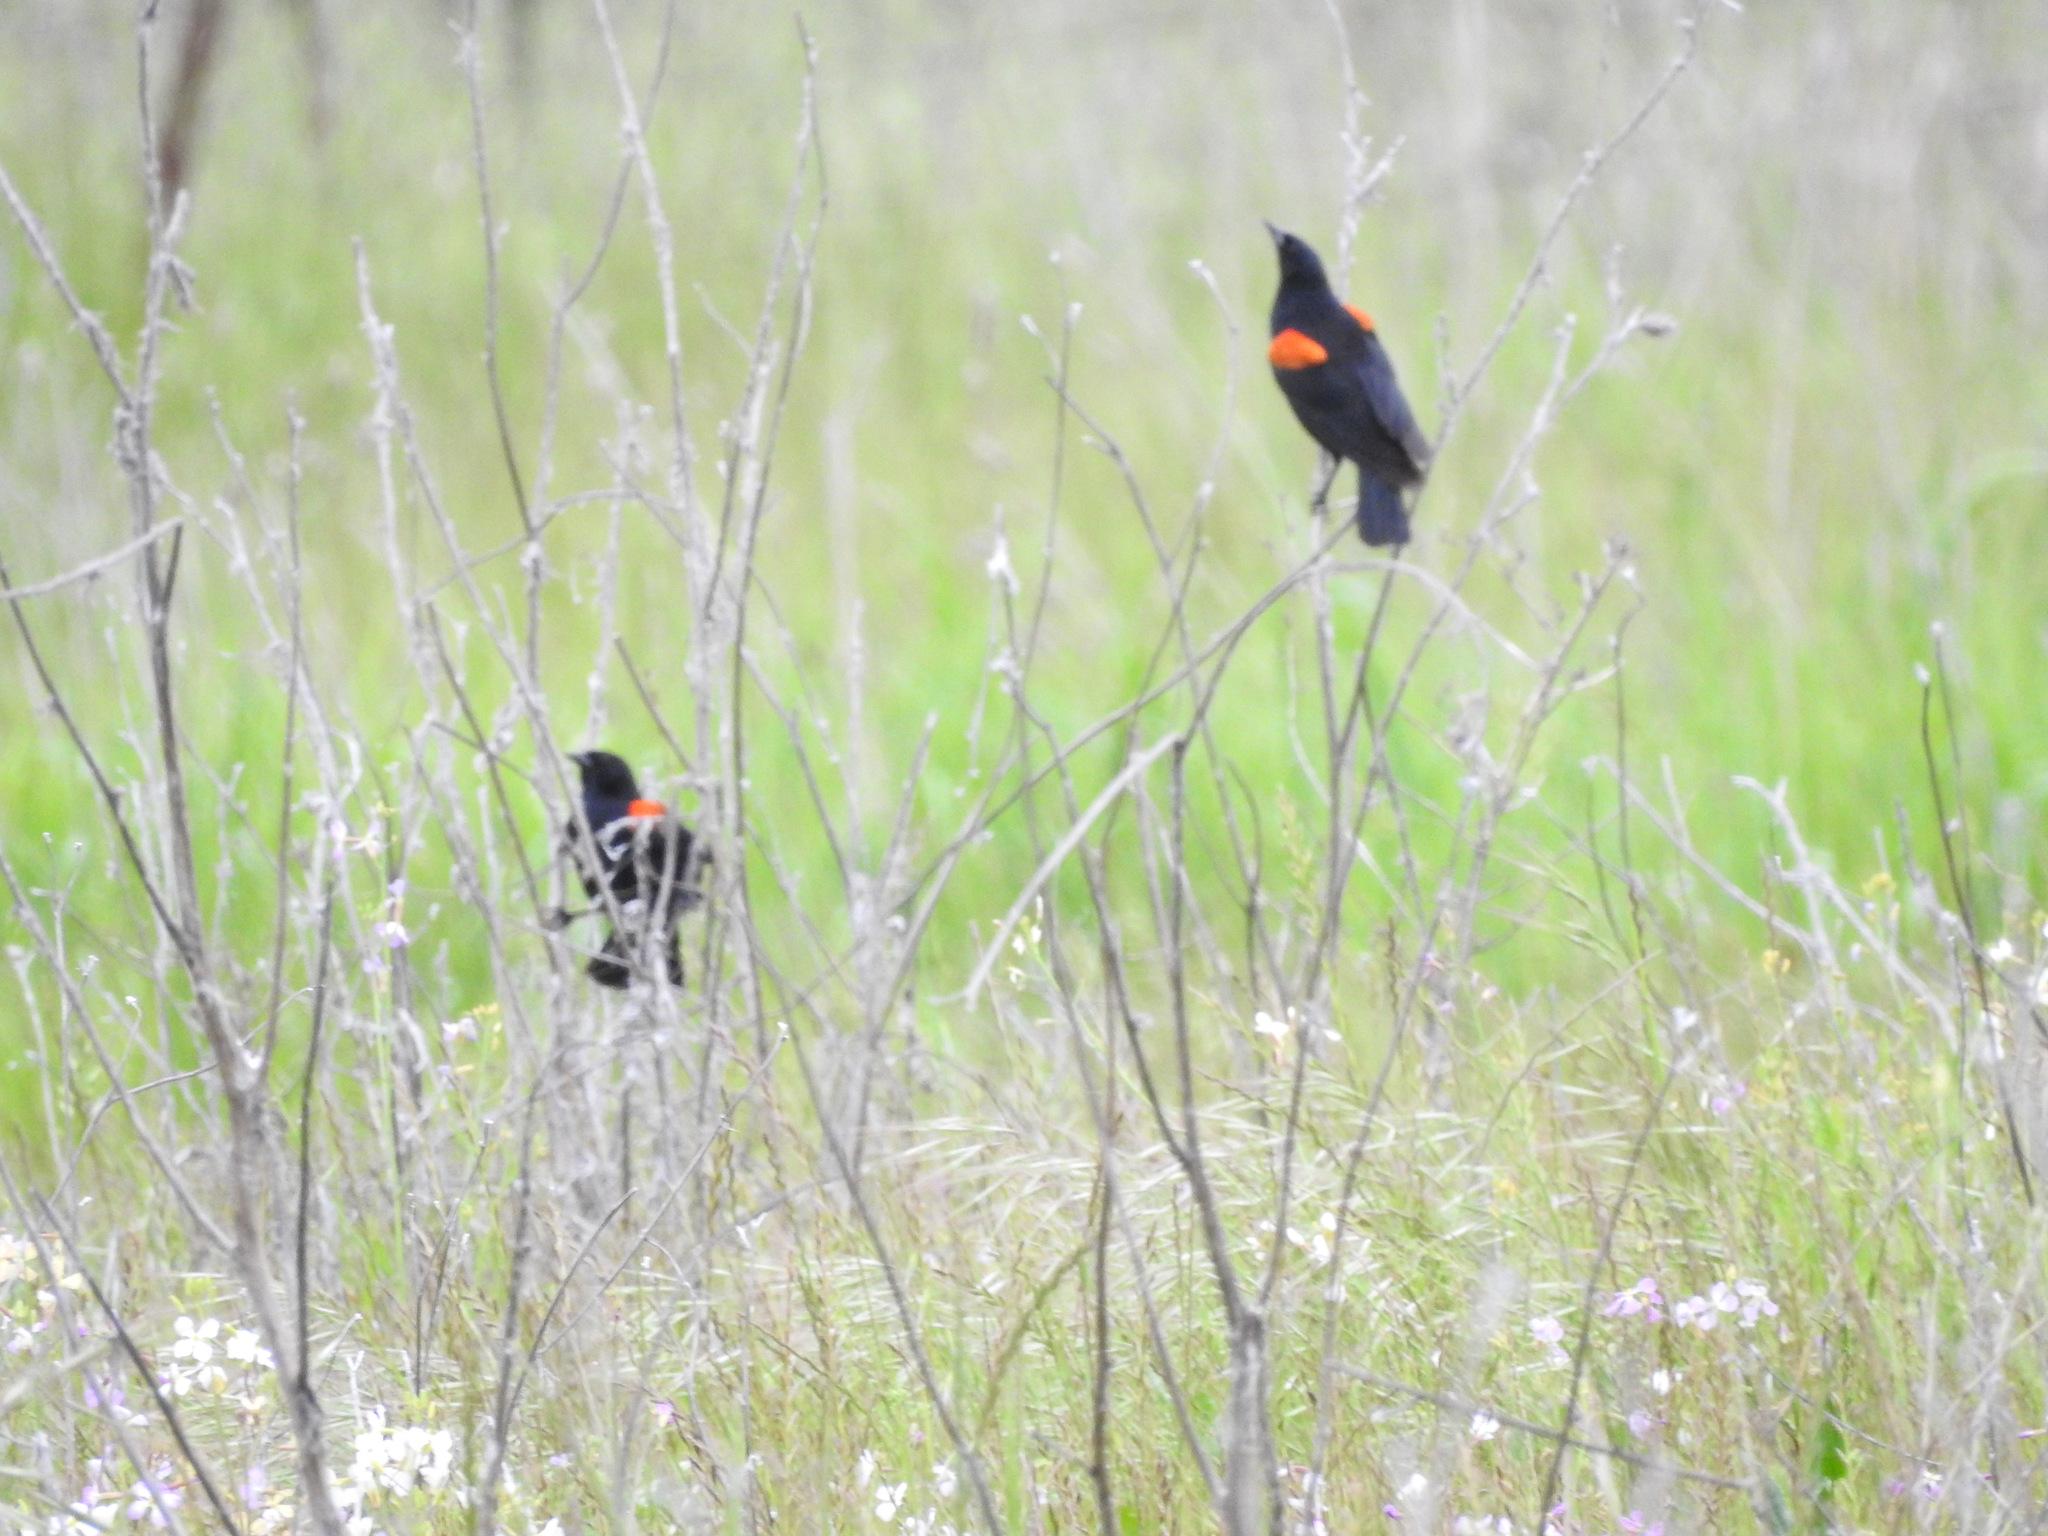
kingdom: Animalia
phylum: Chordata
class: Aves
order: Passeriformes
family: Icteridae
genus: Agelaius
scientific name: Agelaius phoeniceus
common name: Red-winged blackbird
